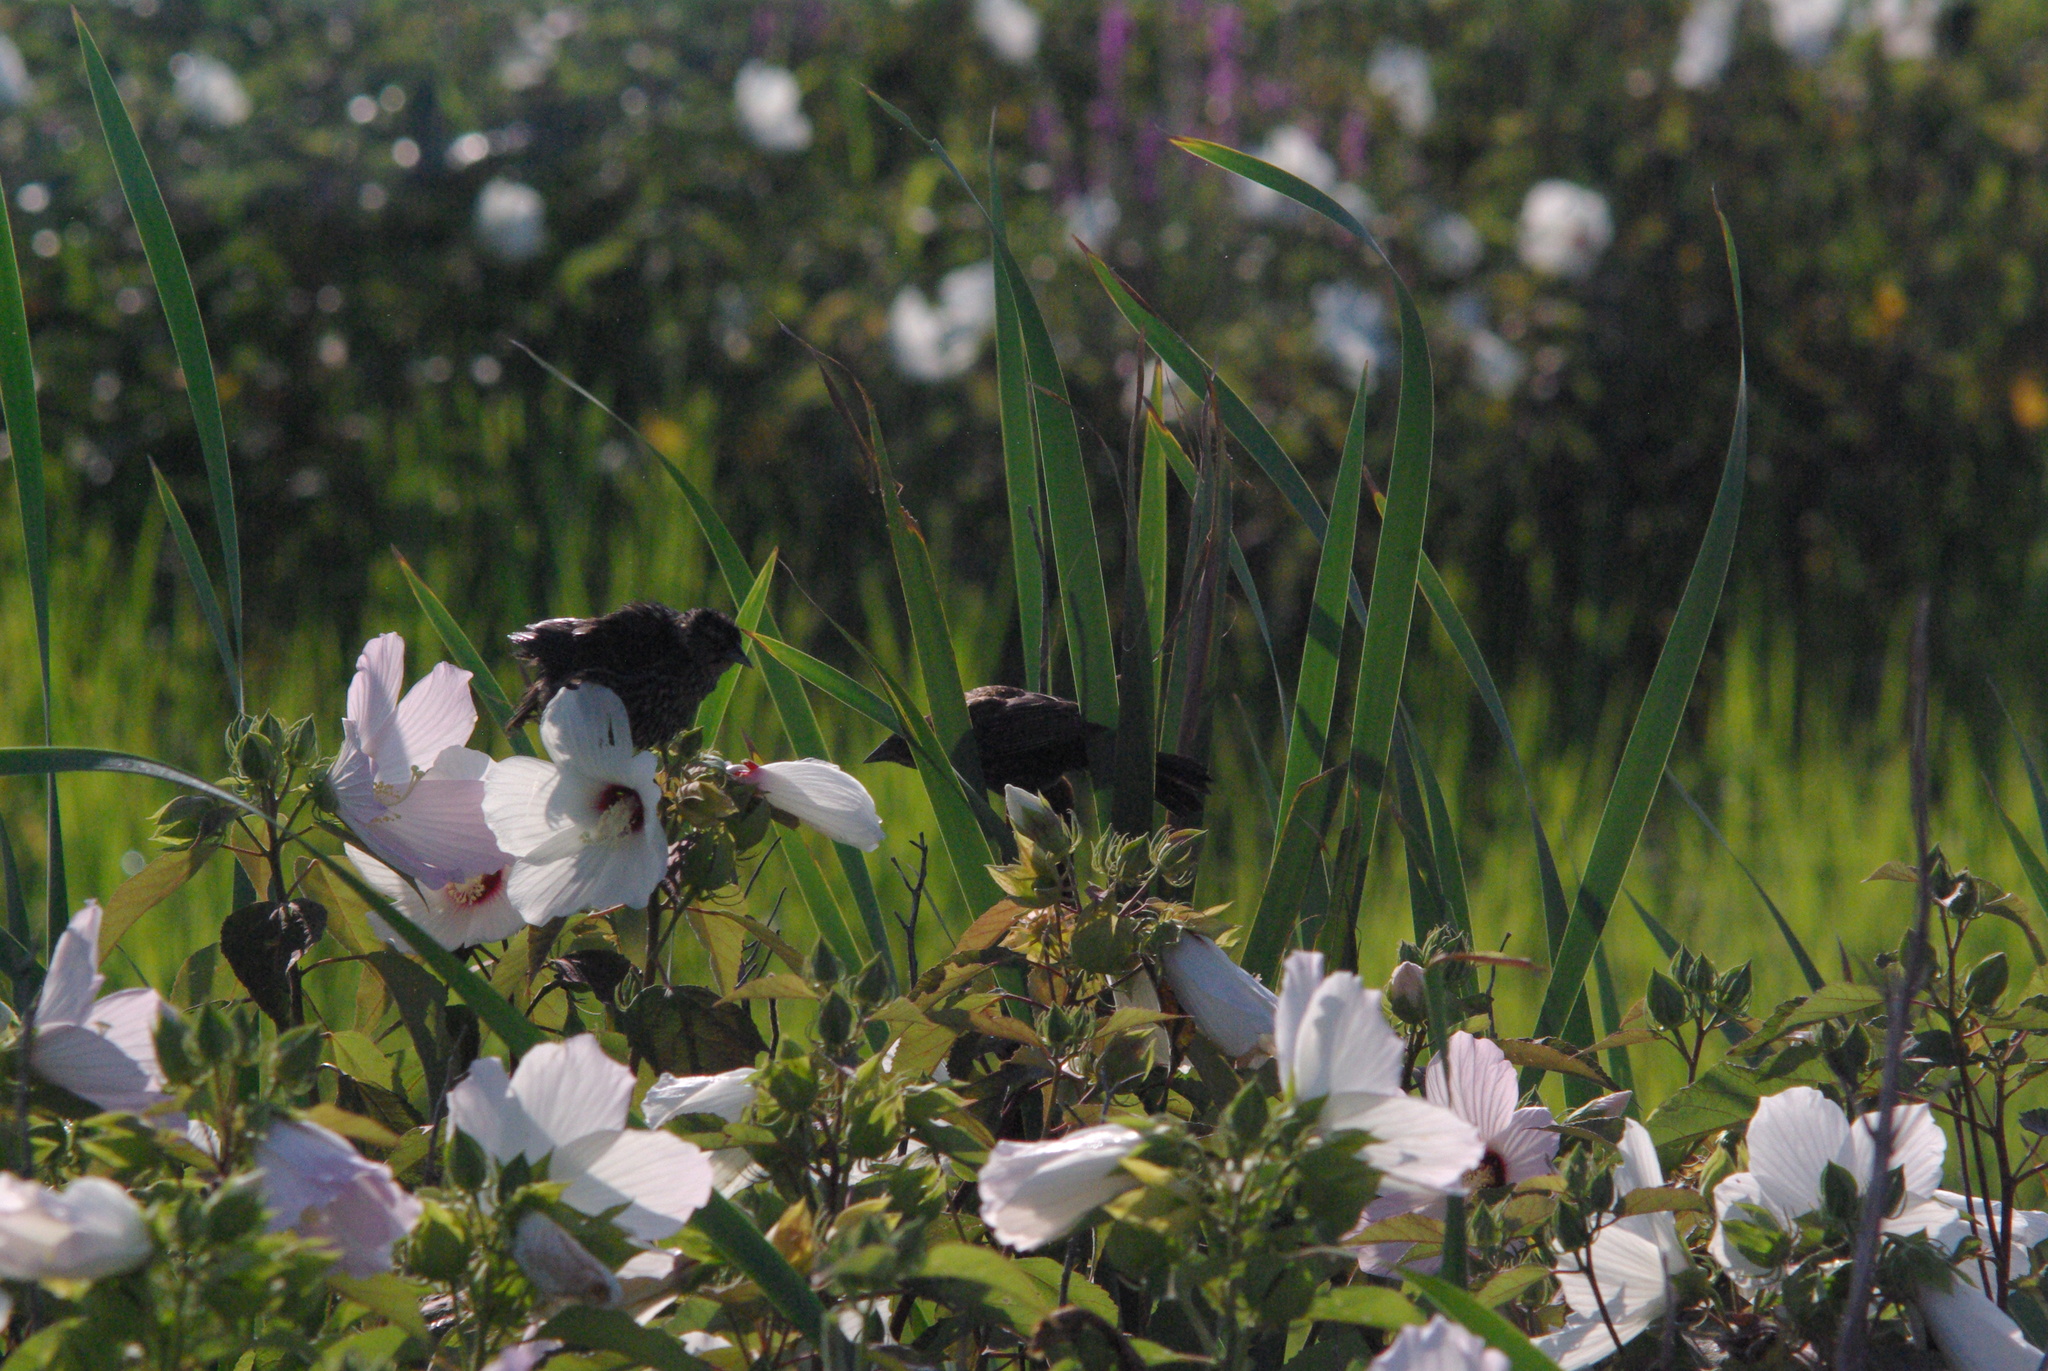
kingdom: Animalia
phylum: Chordata
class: Aves
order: Passeriformes
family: Icteridae
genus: Agelaius
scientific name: Agelaius phoeniceus
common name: Red-winged blackbird
